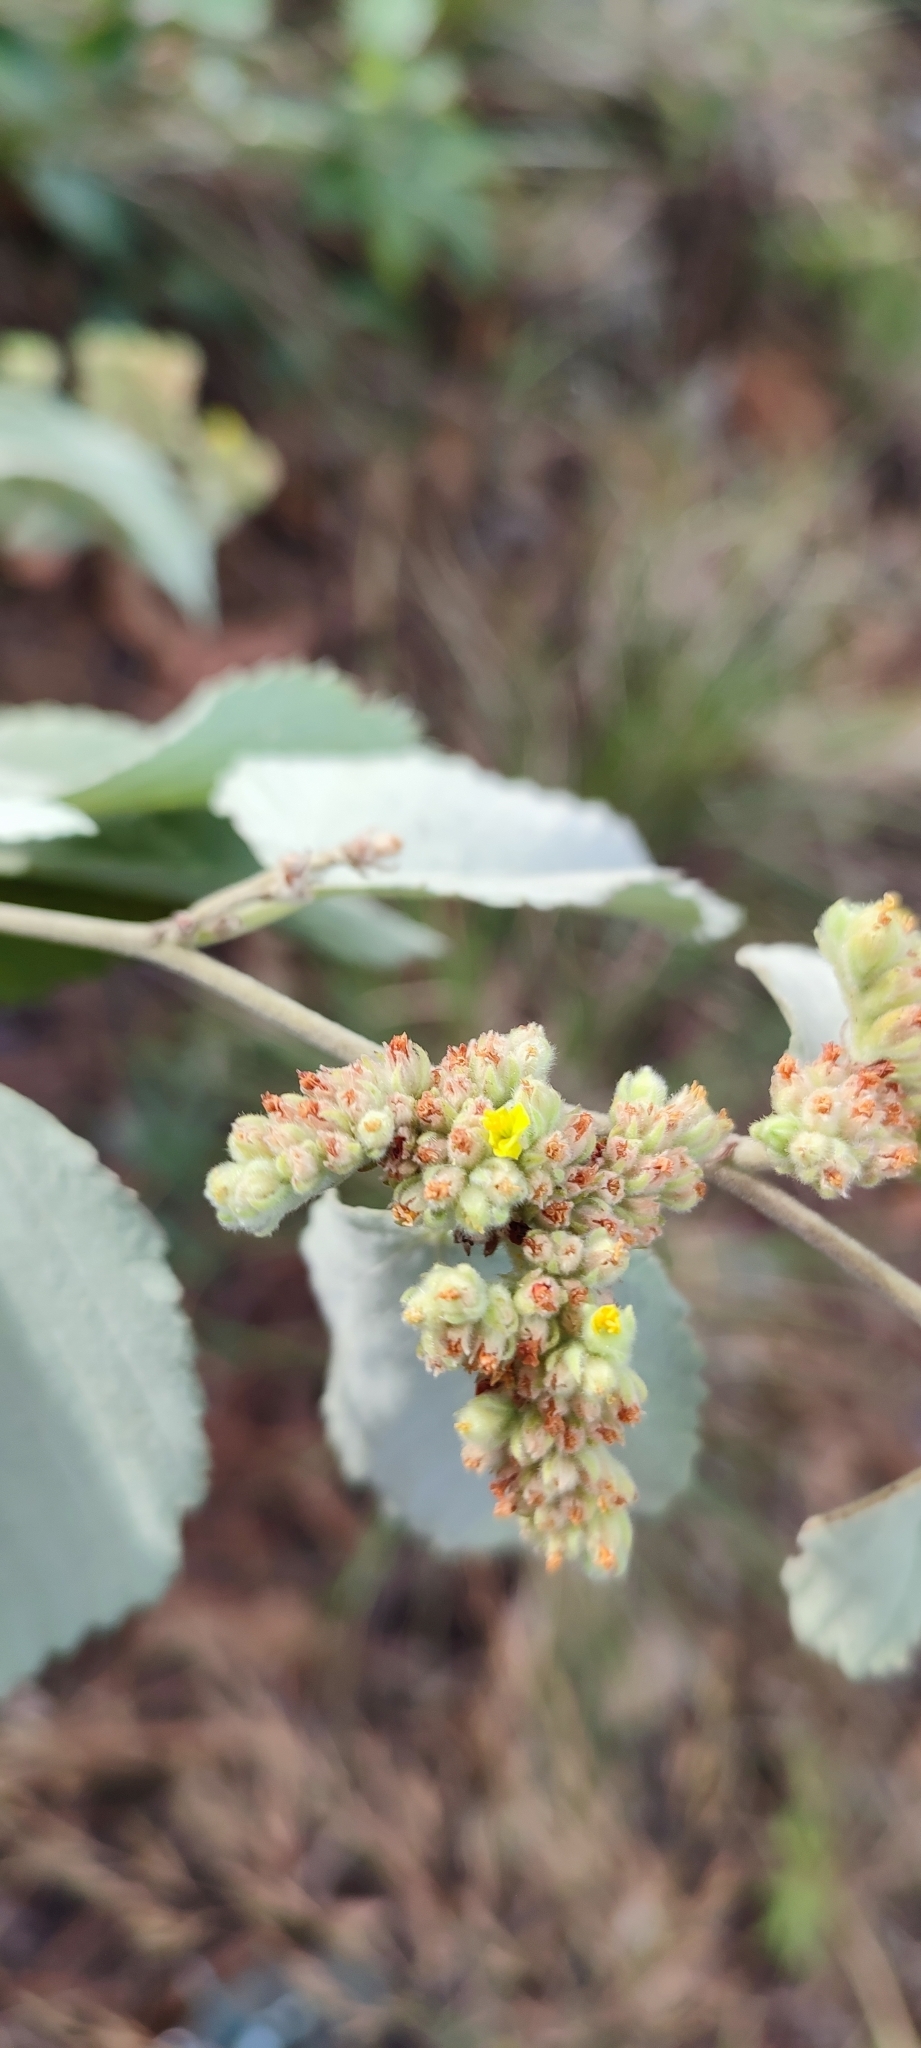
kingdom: Plantae
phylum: Tracheophyta
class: Magnoliopsida
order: Malvales
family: Malvaceae
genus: Waltheria
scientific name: Waltheria fryxellii
